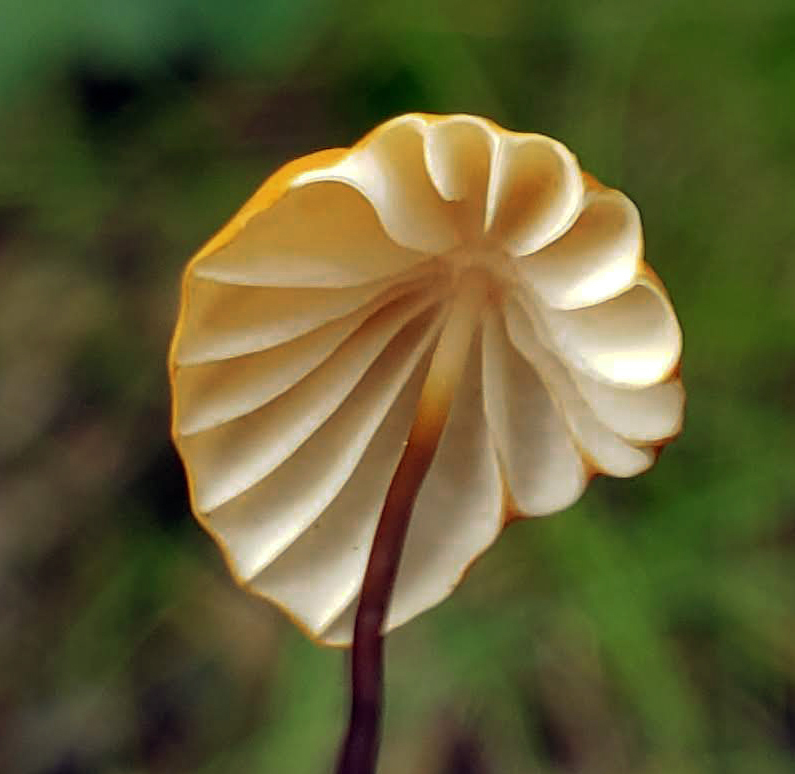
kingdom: Fungi
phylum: Basidiomycota
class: Agaricomycetes
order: Agaricales
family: Marasmiaceae
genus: Marasmius
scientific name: Marasmius siccus
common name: Orange pinwheel
